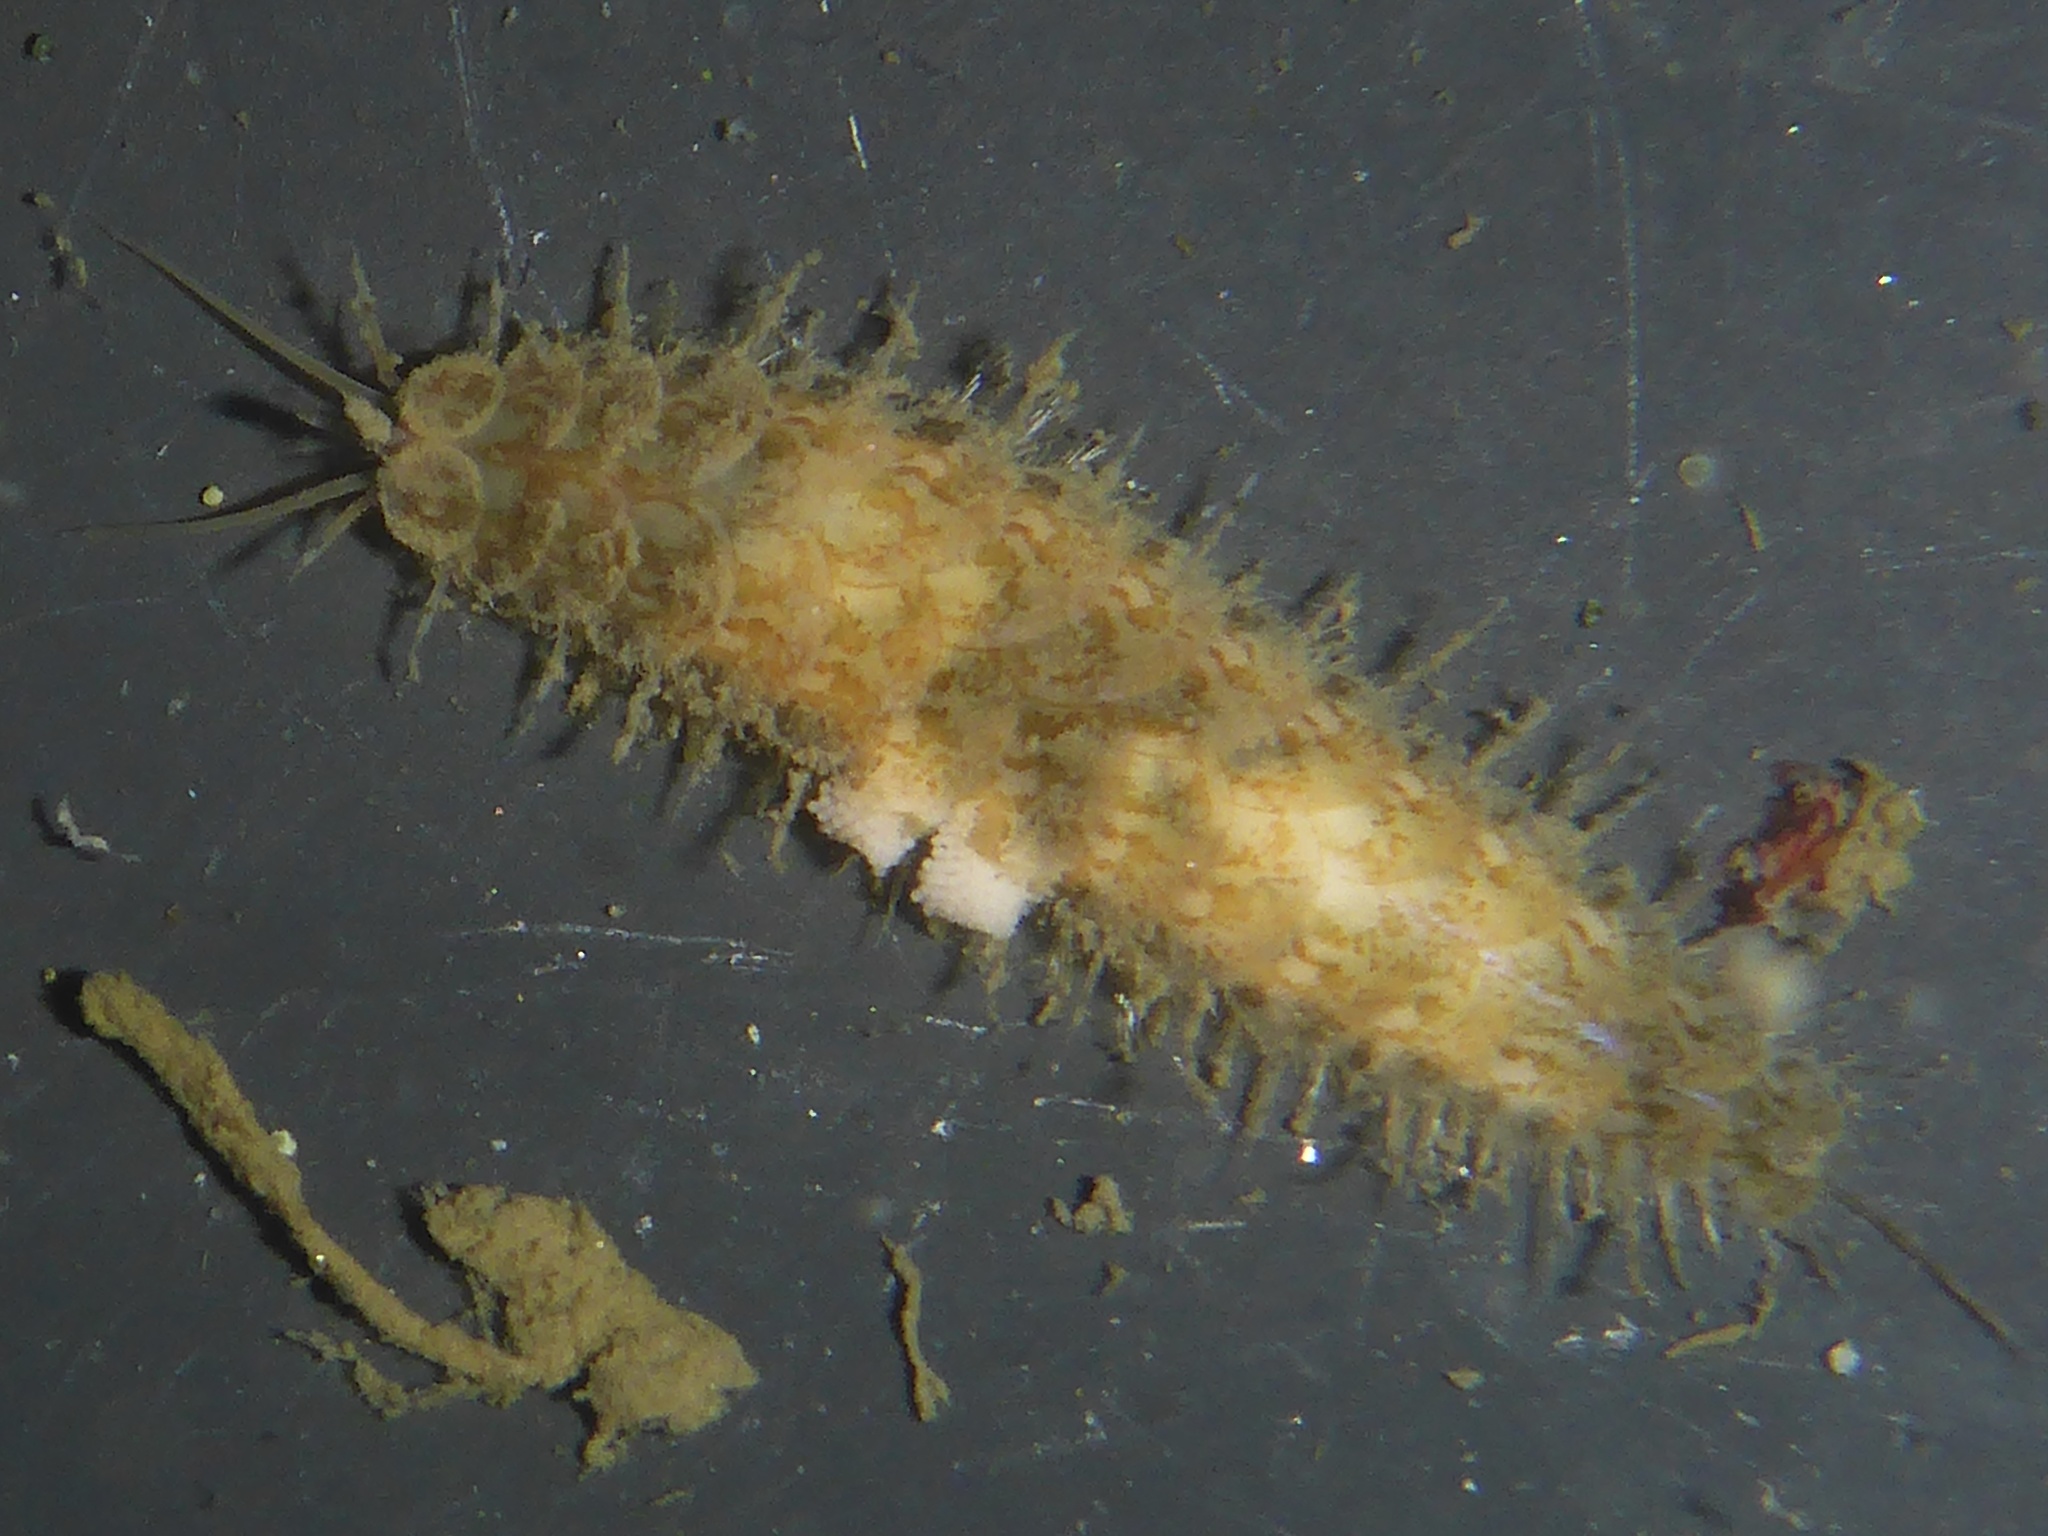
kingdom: Animalia
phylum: Annelida
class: Polychaeta
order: Phyllodocida
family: Polynoidae
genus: Harmothoe
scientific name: Harmothoe imbricata
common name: Fifteen-scaled worm
